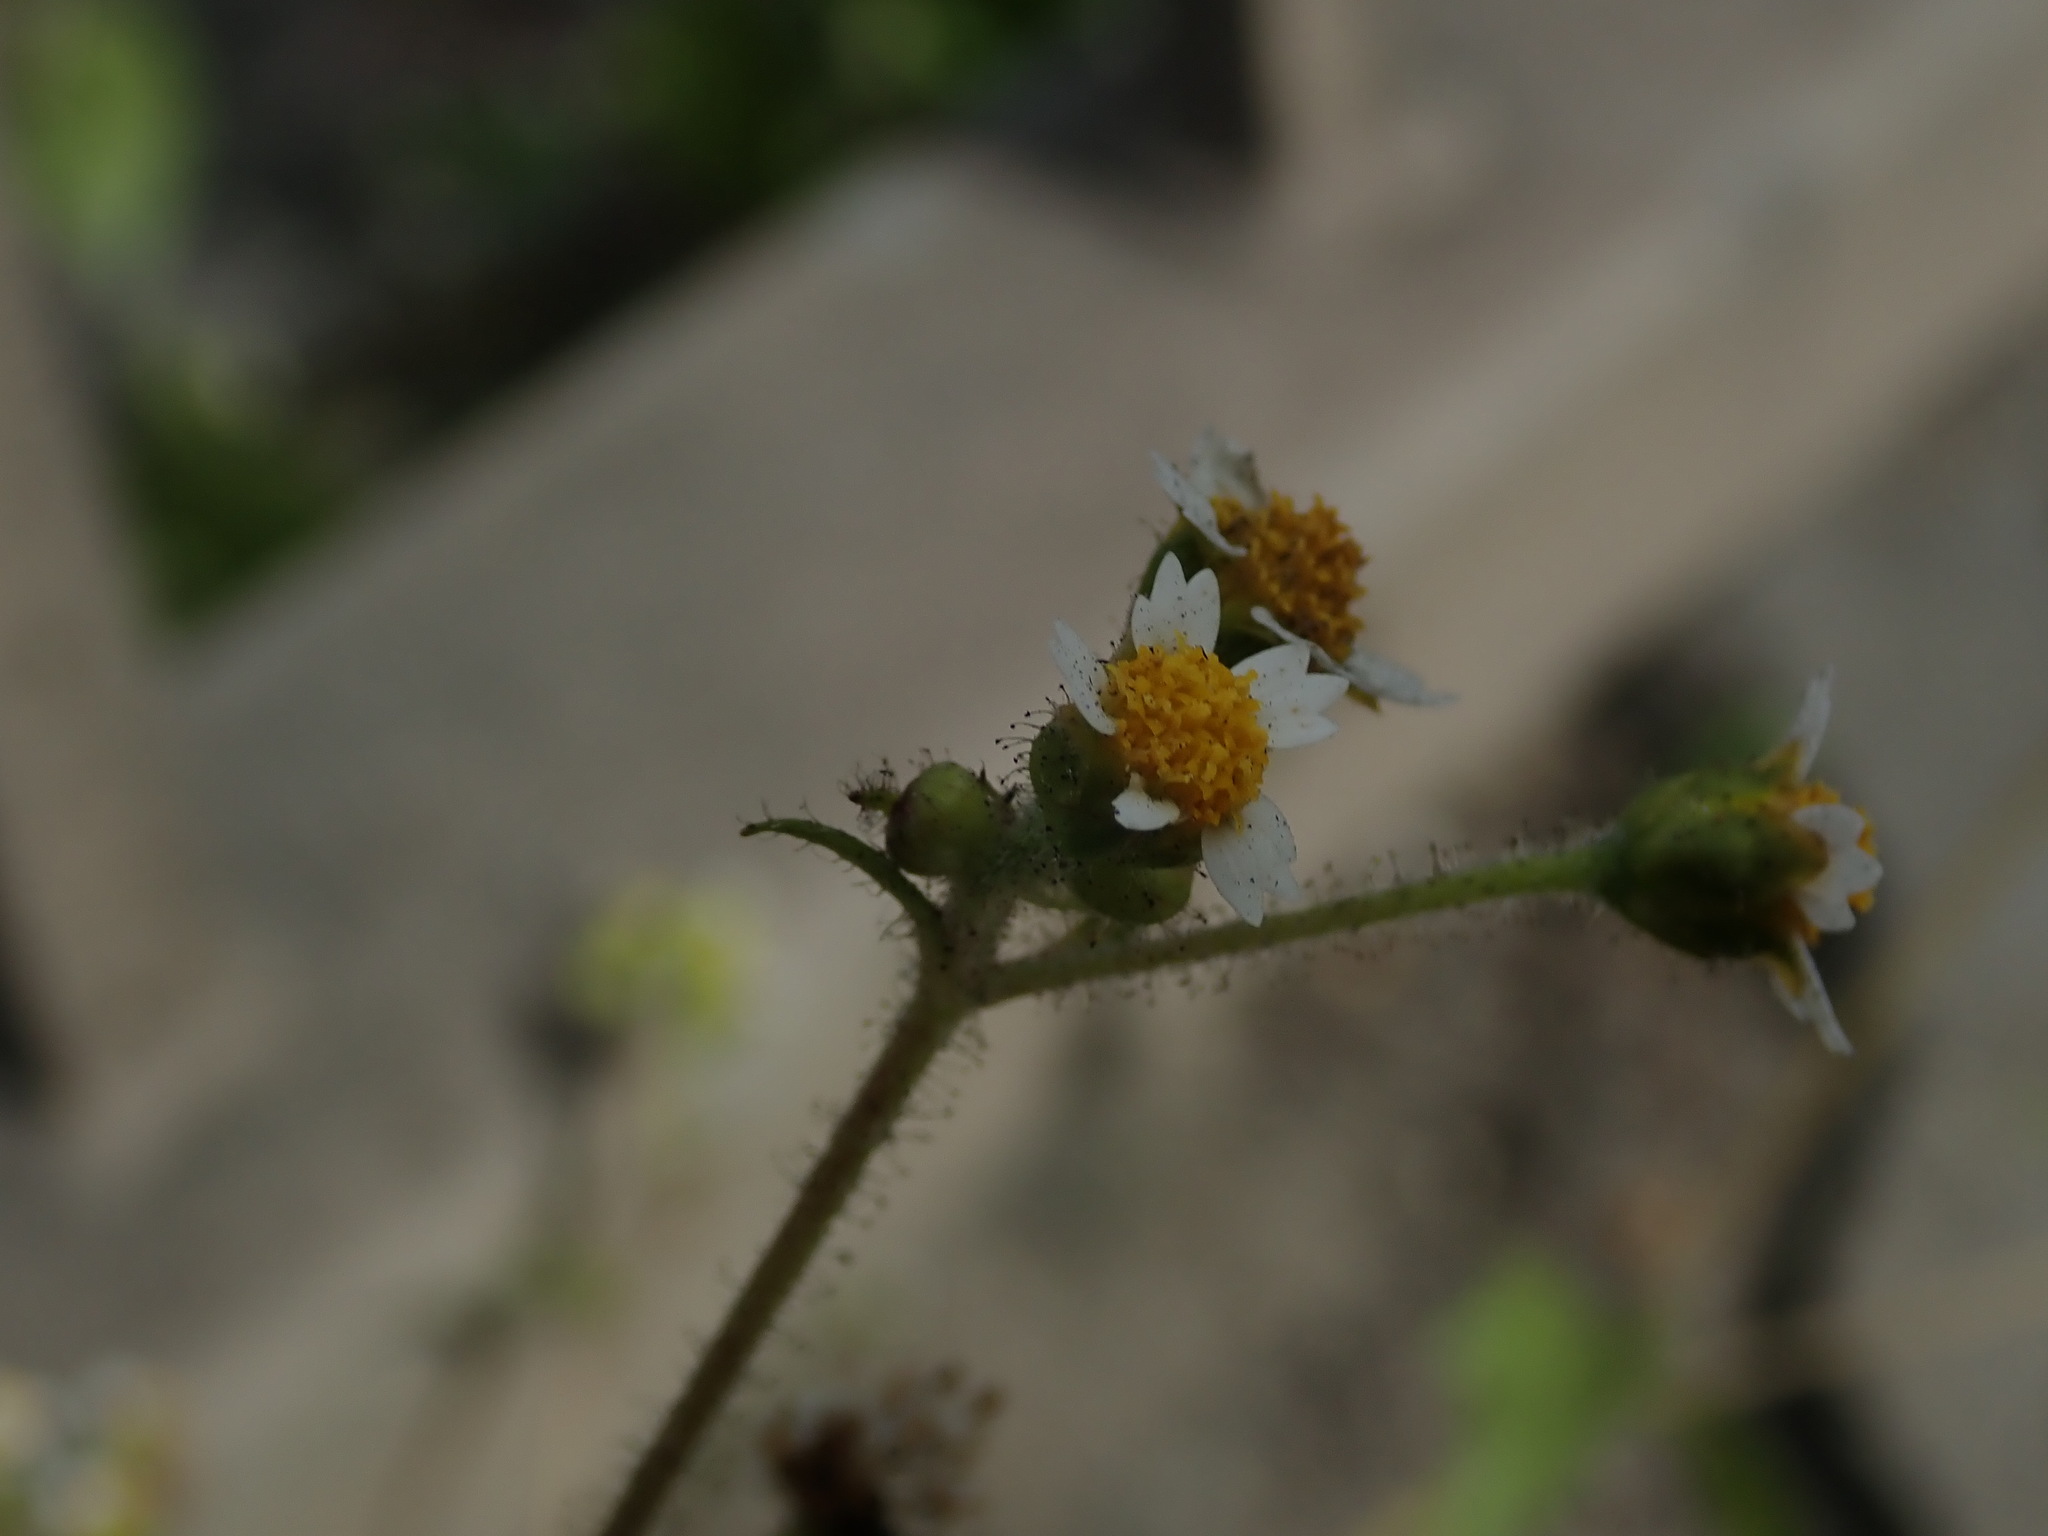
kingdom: Plantae
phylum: Tracheophyta
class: Magnoliopsida
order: Asterales
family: Asteraceae
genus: Galinsoga
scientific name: Galinsoga quadriradiata
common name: Shaggy soldier
